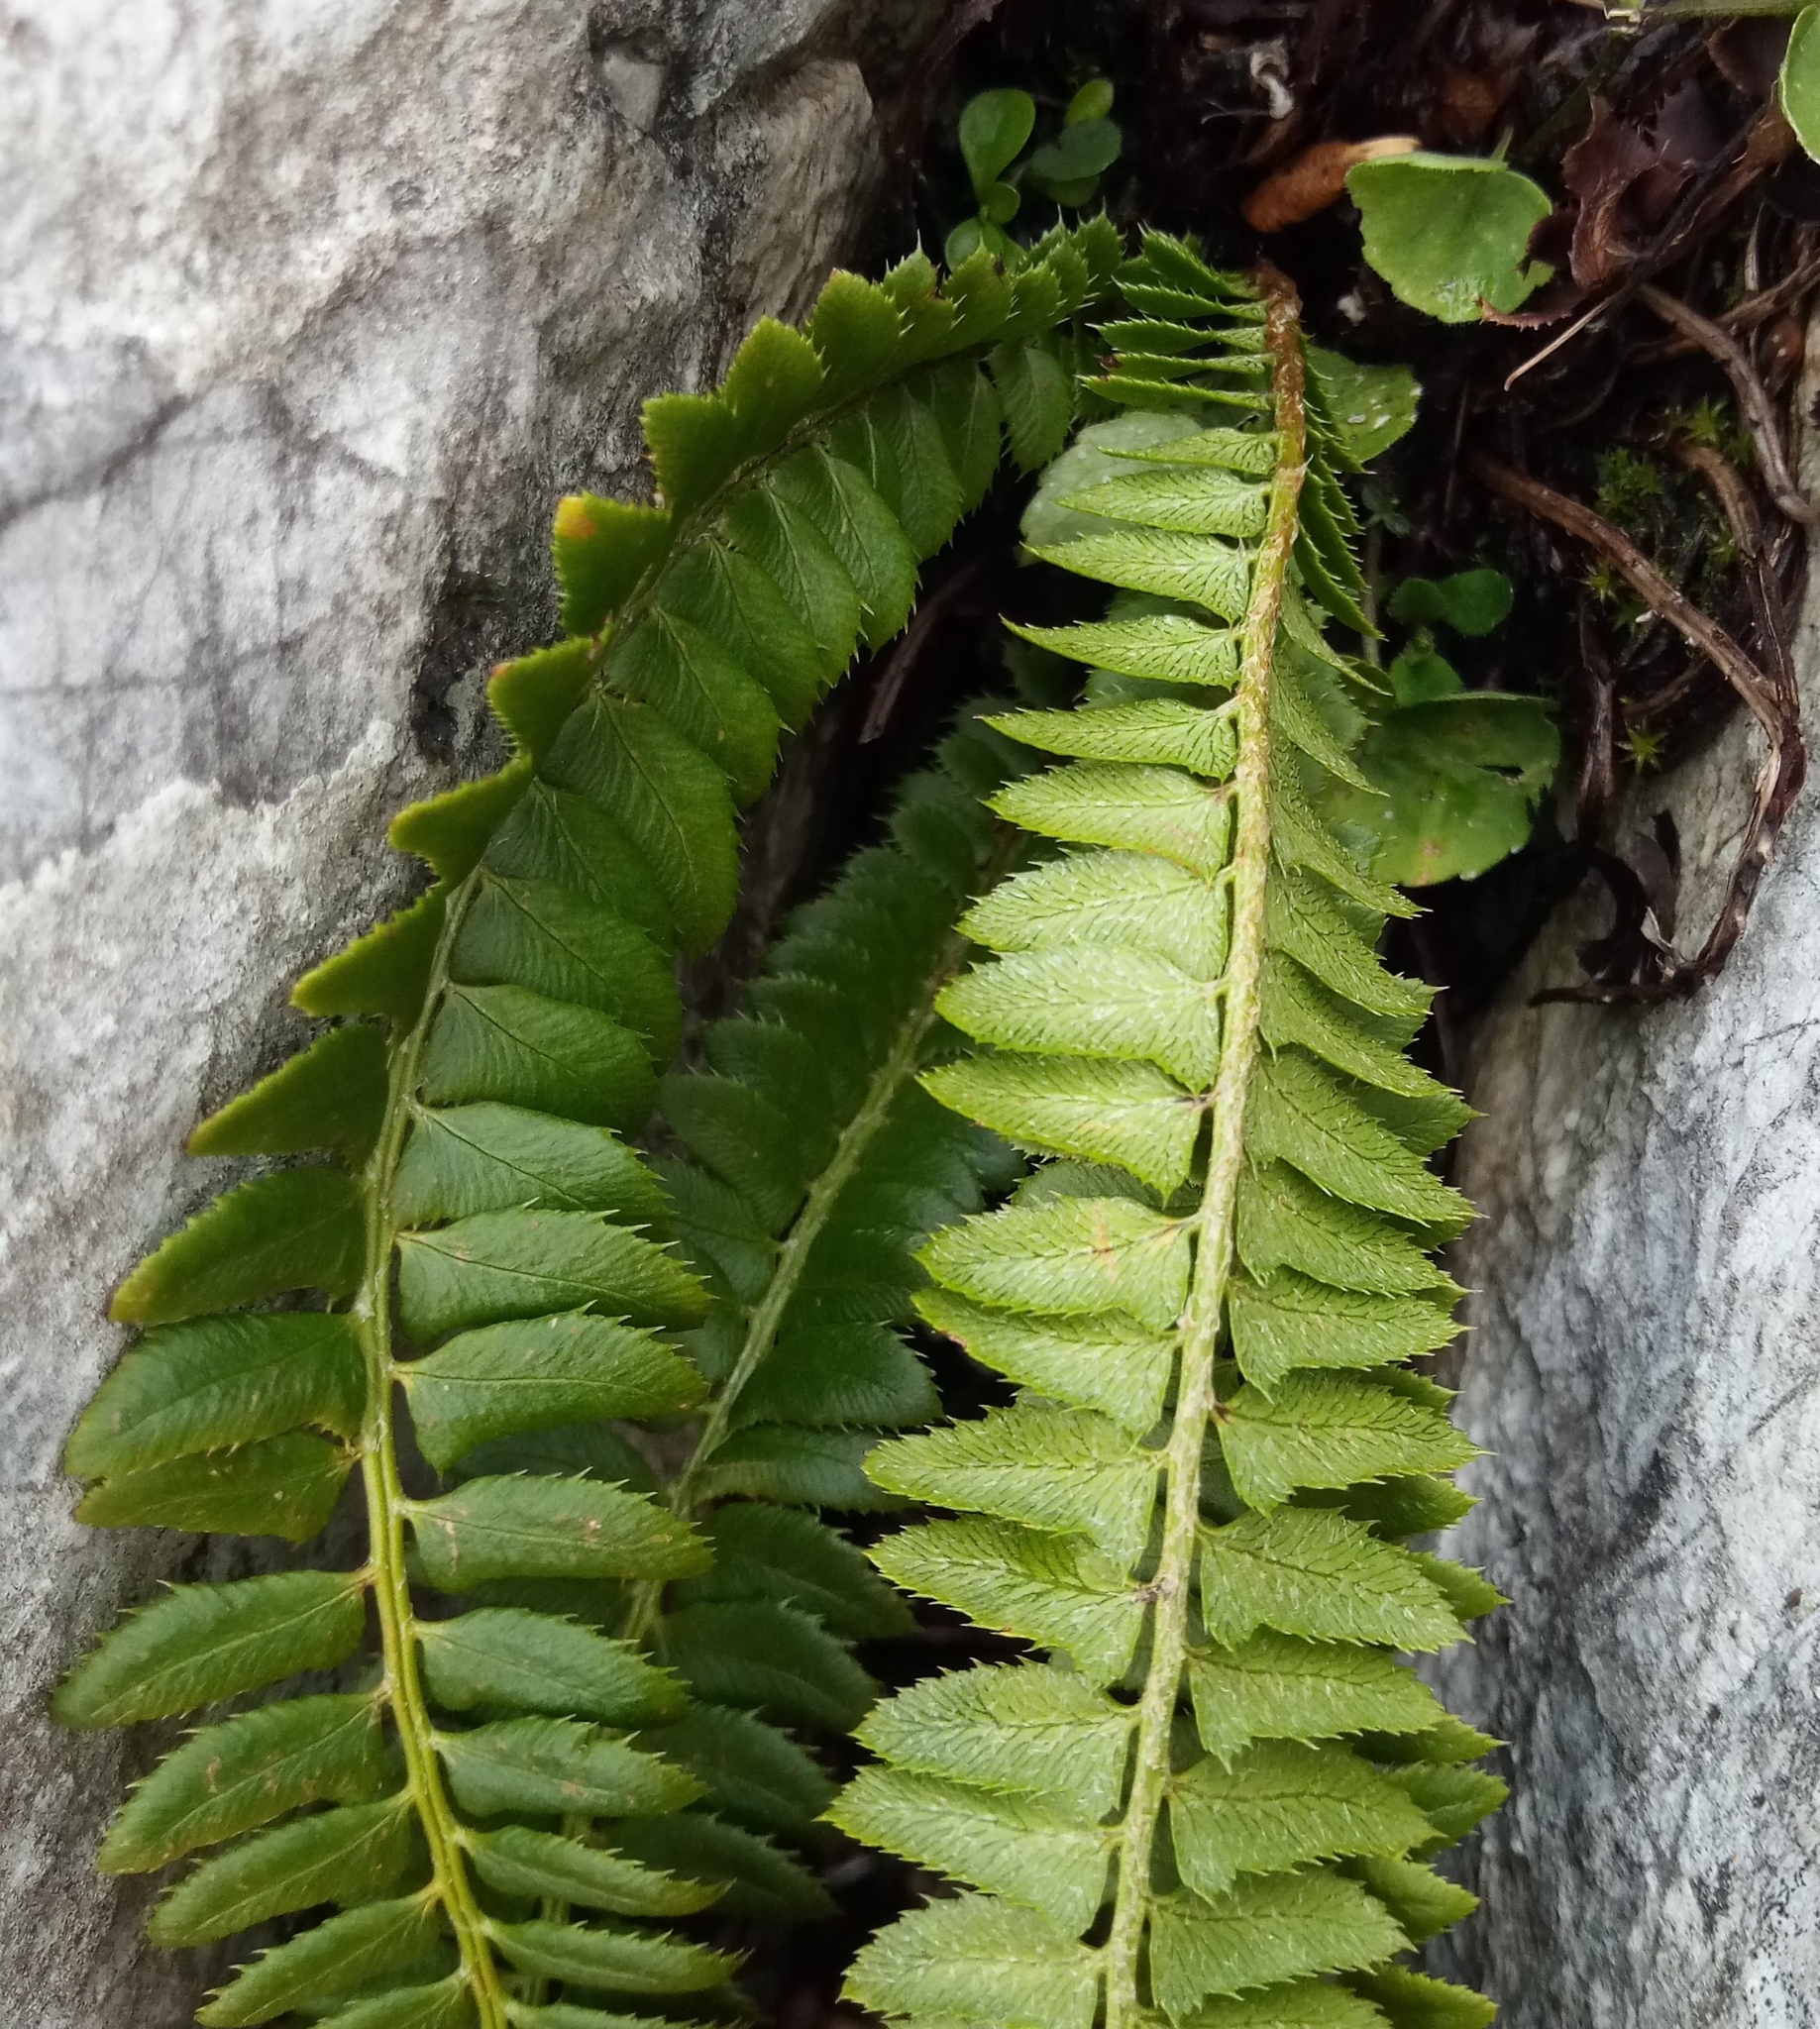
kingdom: Plantae
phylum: Tracheophyta
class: Polypodiopsida
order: Polypodiales
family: Dryopteridaceae
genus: Polystichum
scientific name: Polystichum lonchitis
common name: Holly fern
